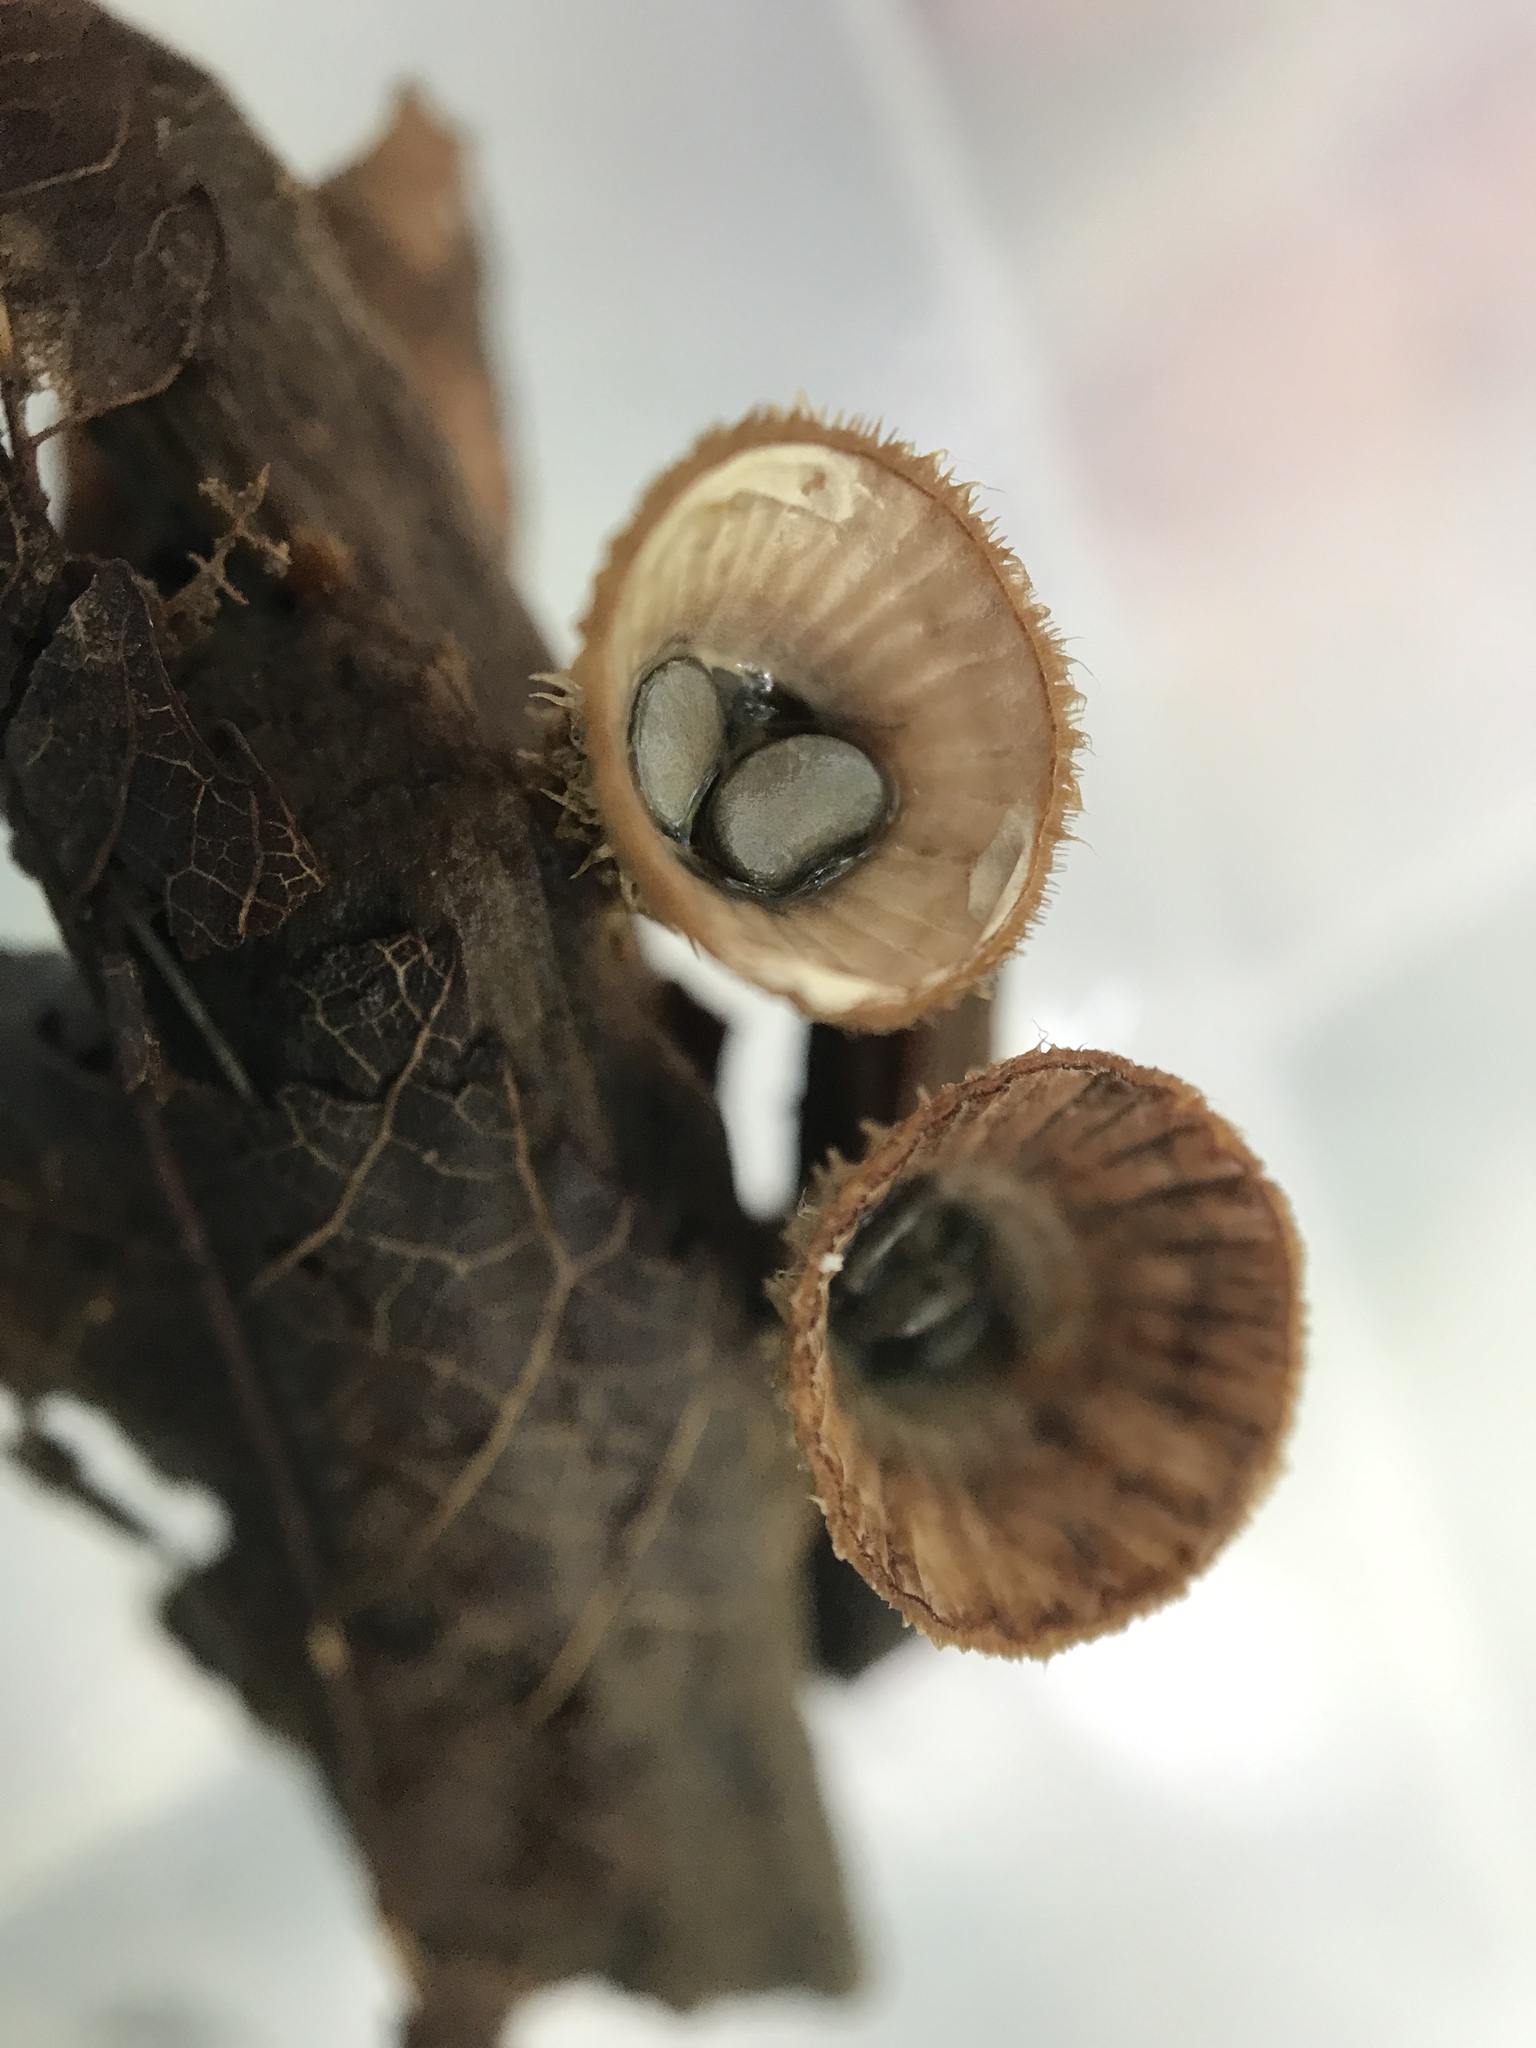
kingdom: Fungi
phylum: Basidiomycota
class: Agaricomycetes
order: Agaricales
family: Agaricaceae
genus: Cyathus
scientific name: Cyathus striatus
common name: Fluted bird's nest
